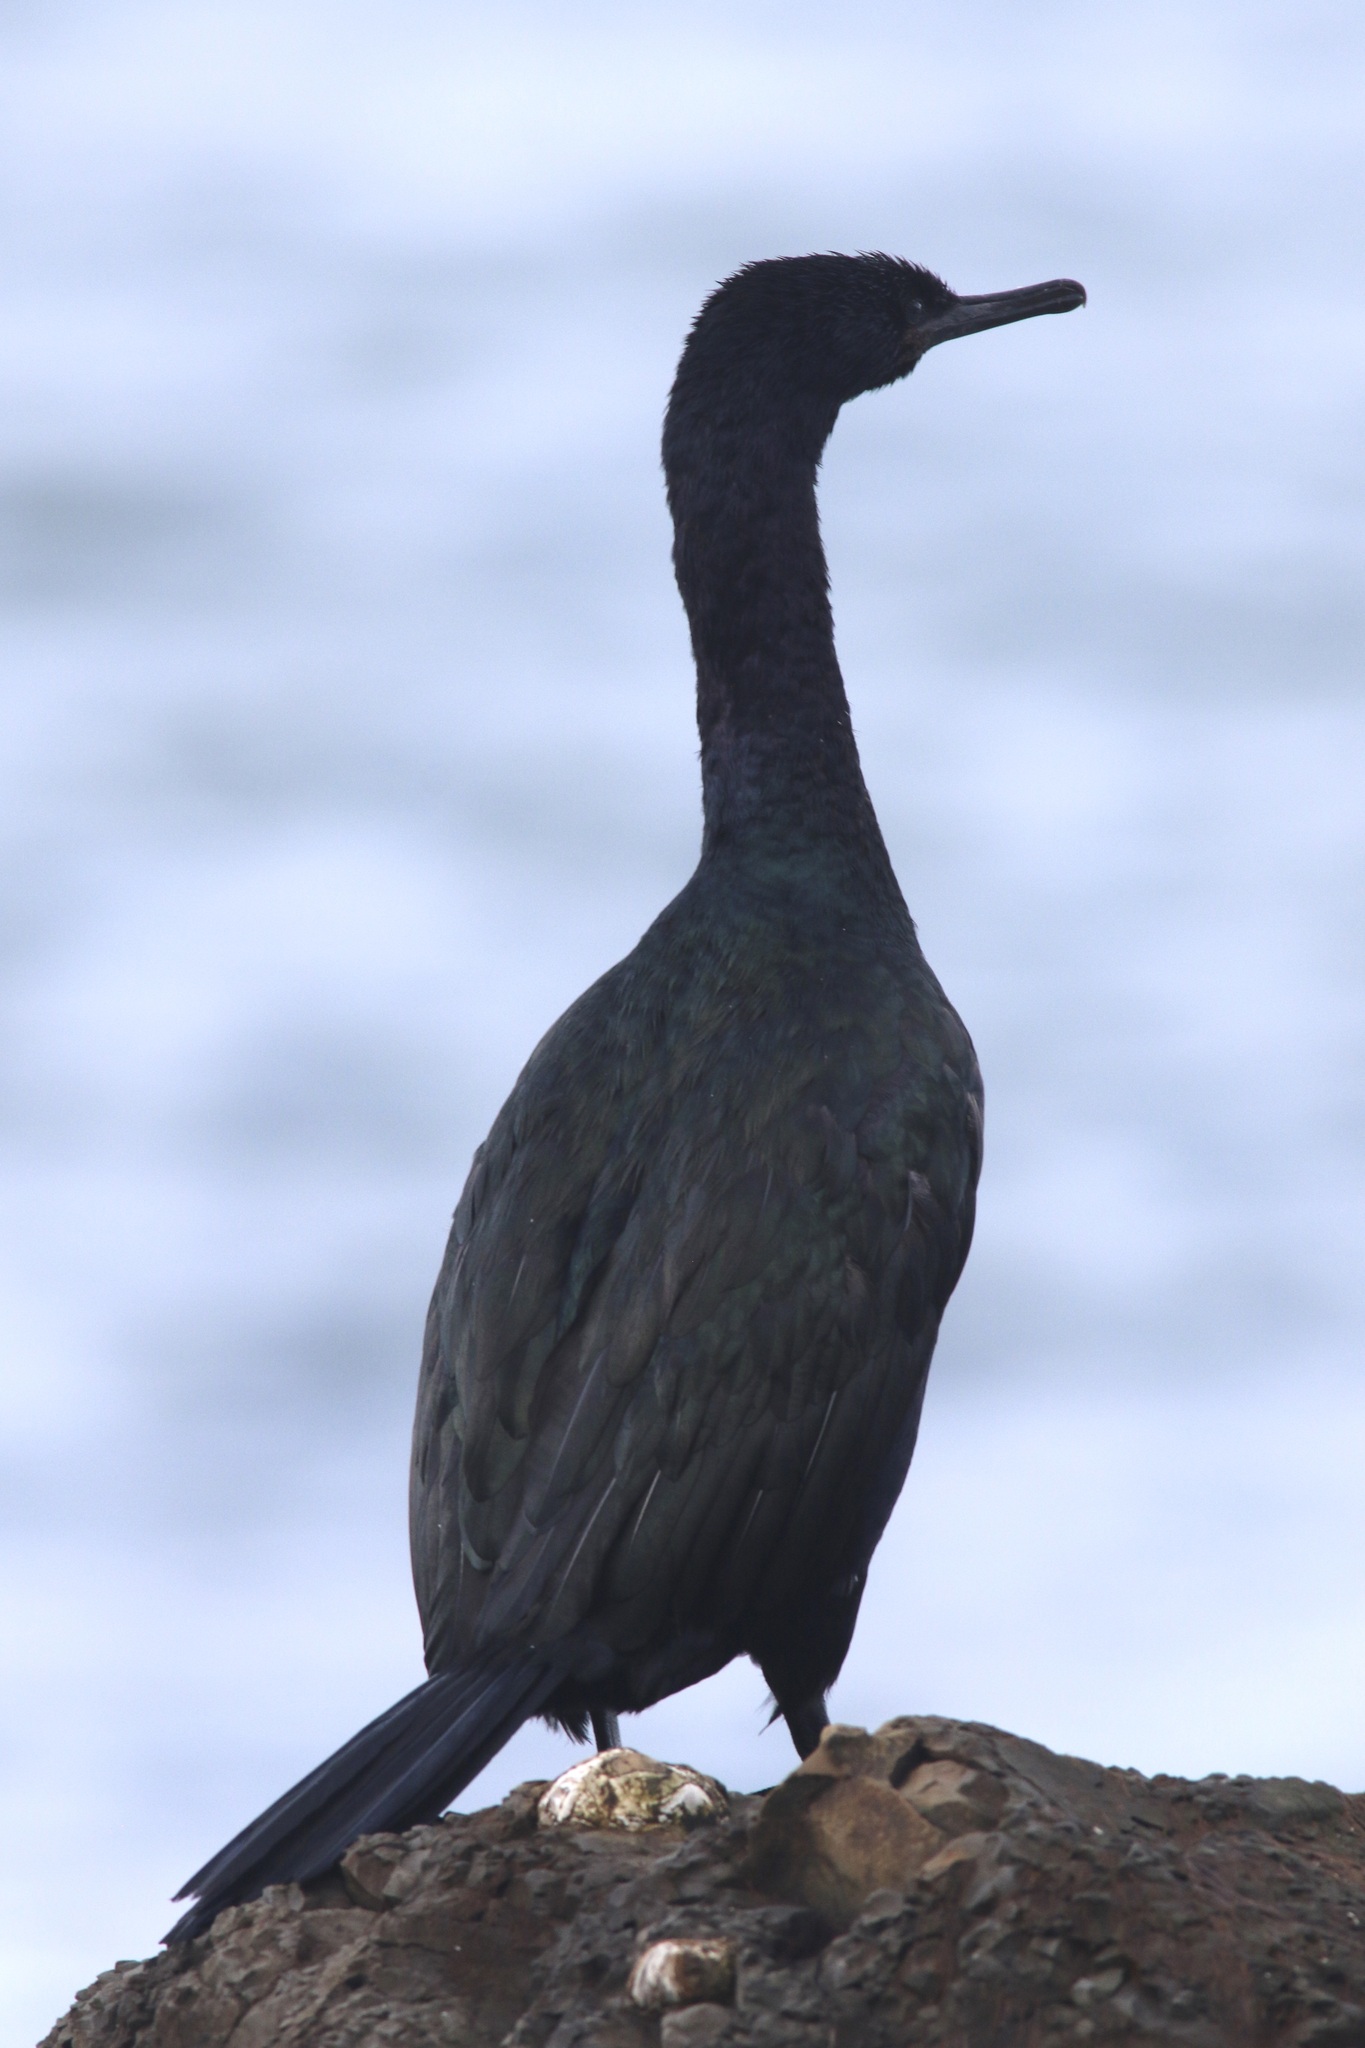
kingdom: Animalia
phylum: Chordata
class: Aves
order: Suliformes
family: Phalacrocoracidae
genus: Phalacrocorax
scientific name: Phalacrocorax pelagicus
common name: Pelagic cormorant
